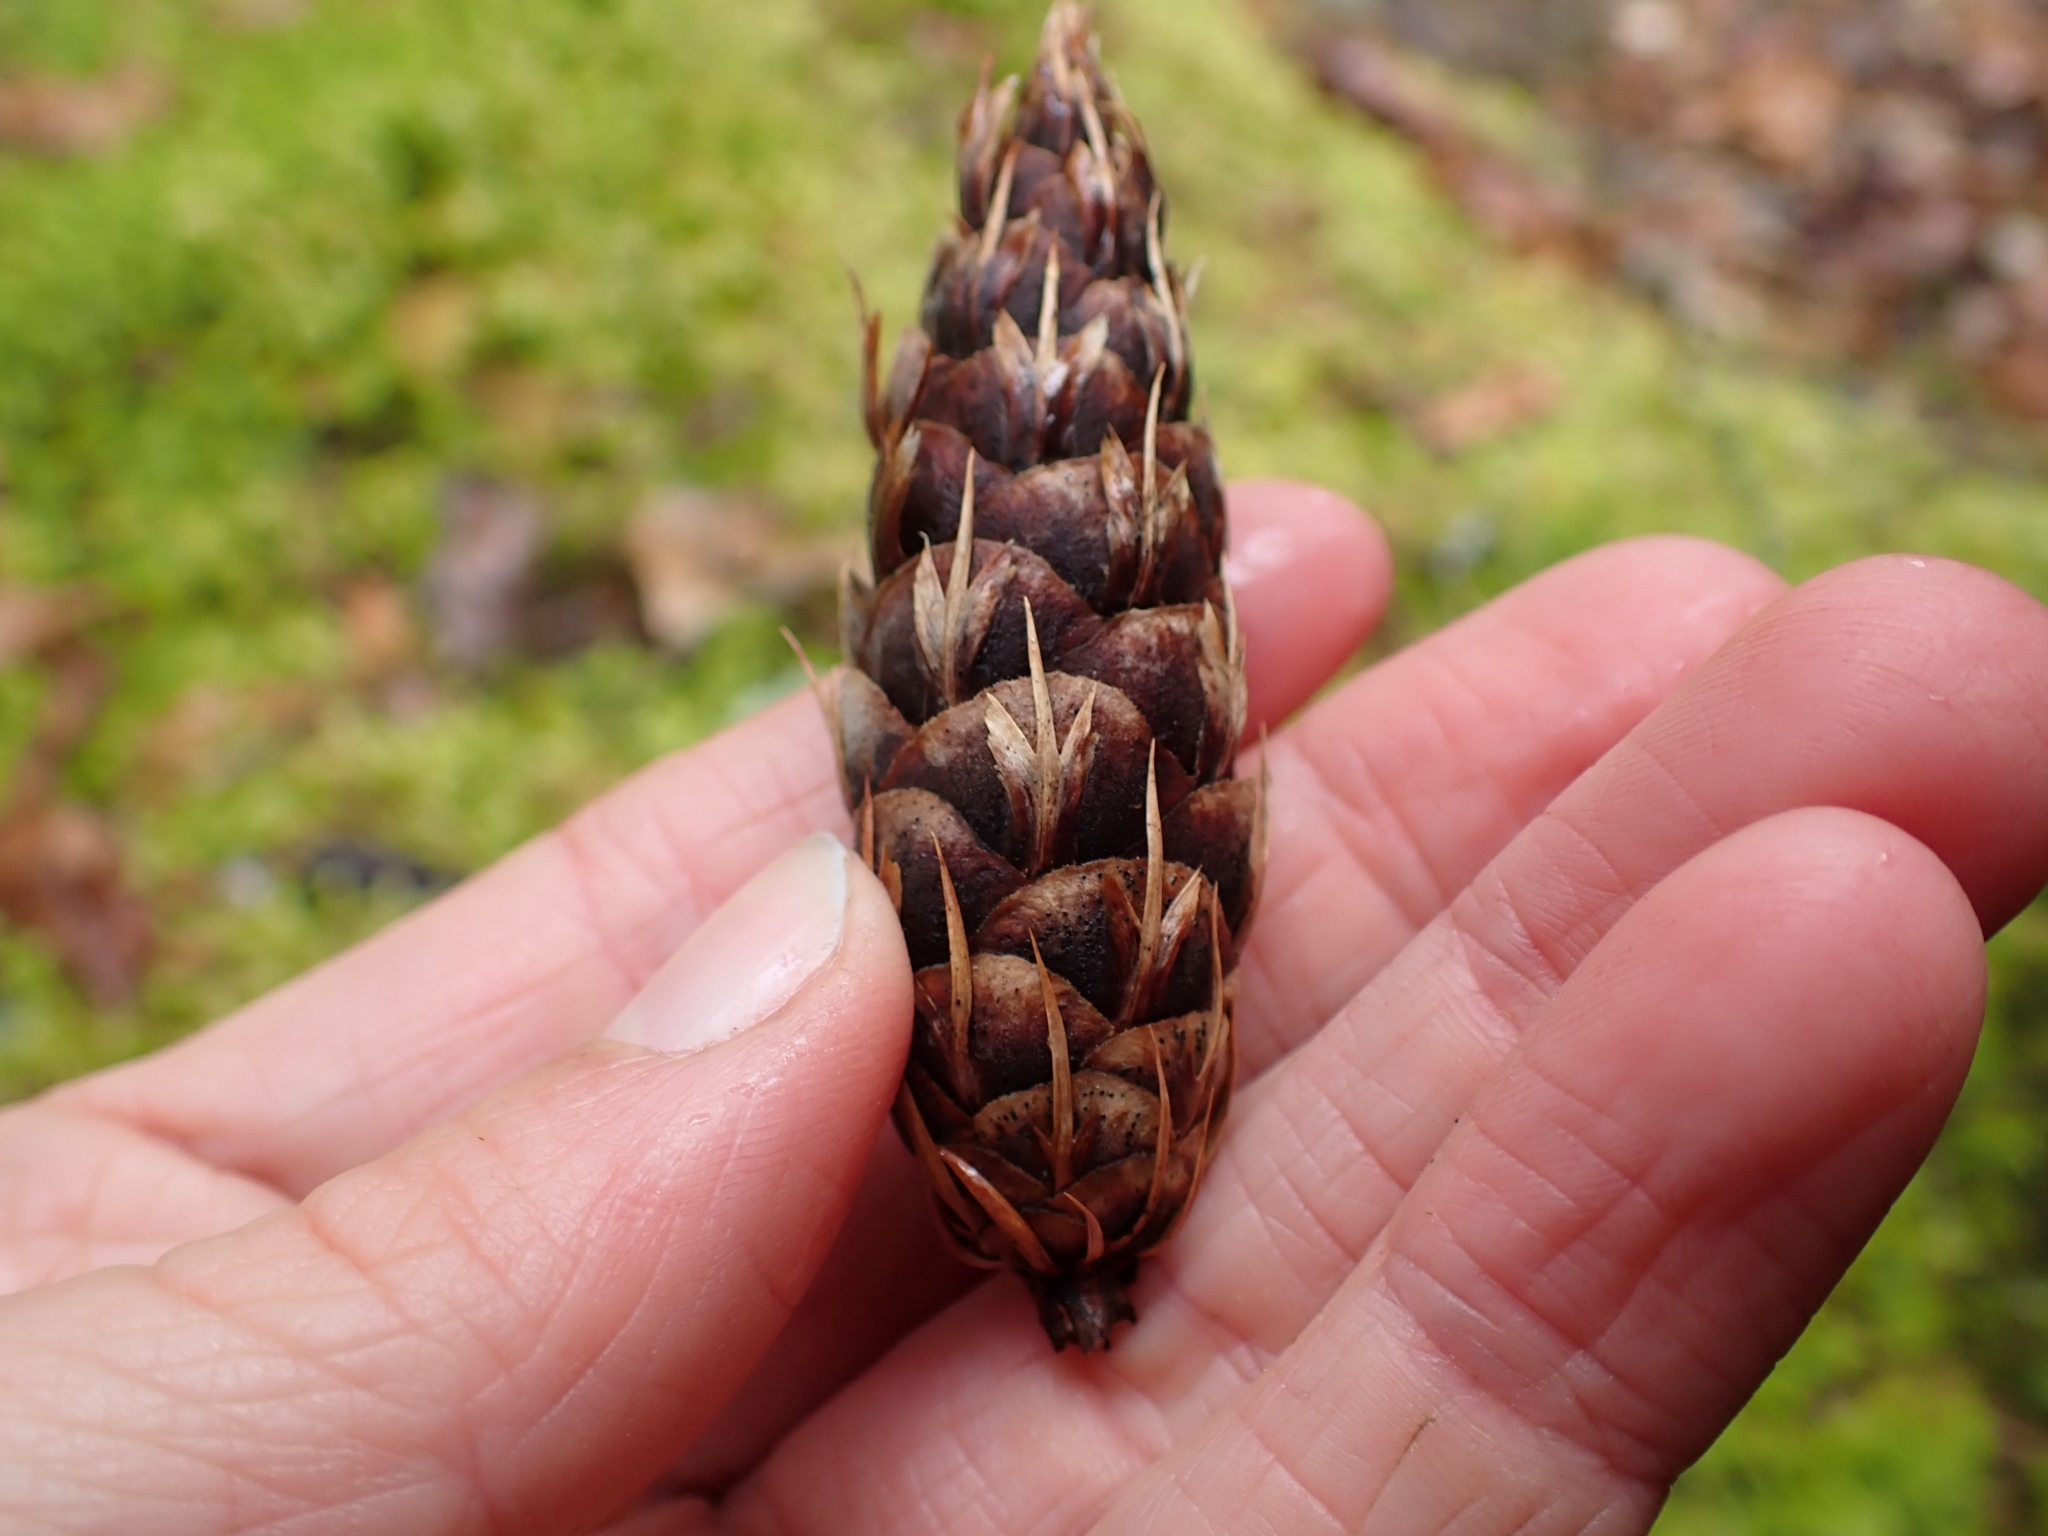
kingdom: Plantae
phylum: Tracheophyta
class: Pinopsida
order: Pinales
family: Pinaceae
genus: Pseudotsuga
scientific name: Pseudotsuga menziesii
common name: Douglas fir
